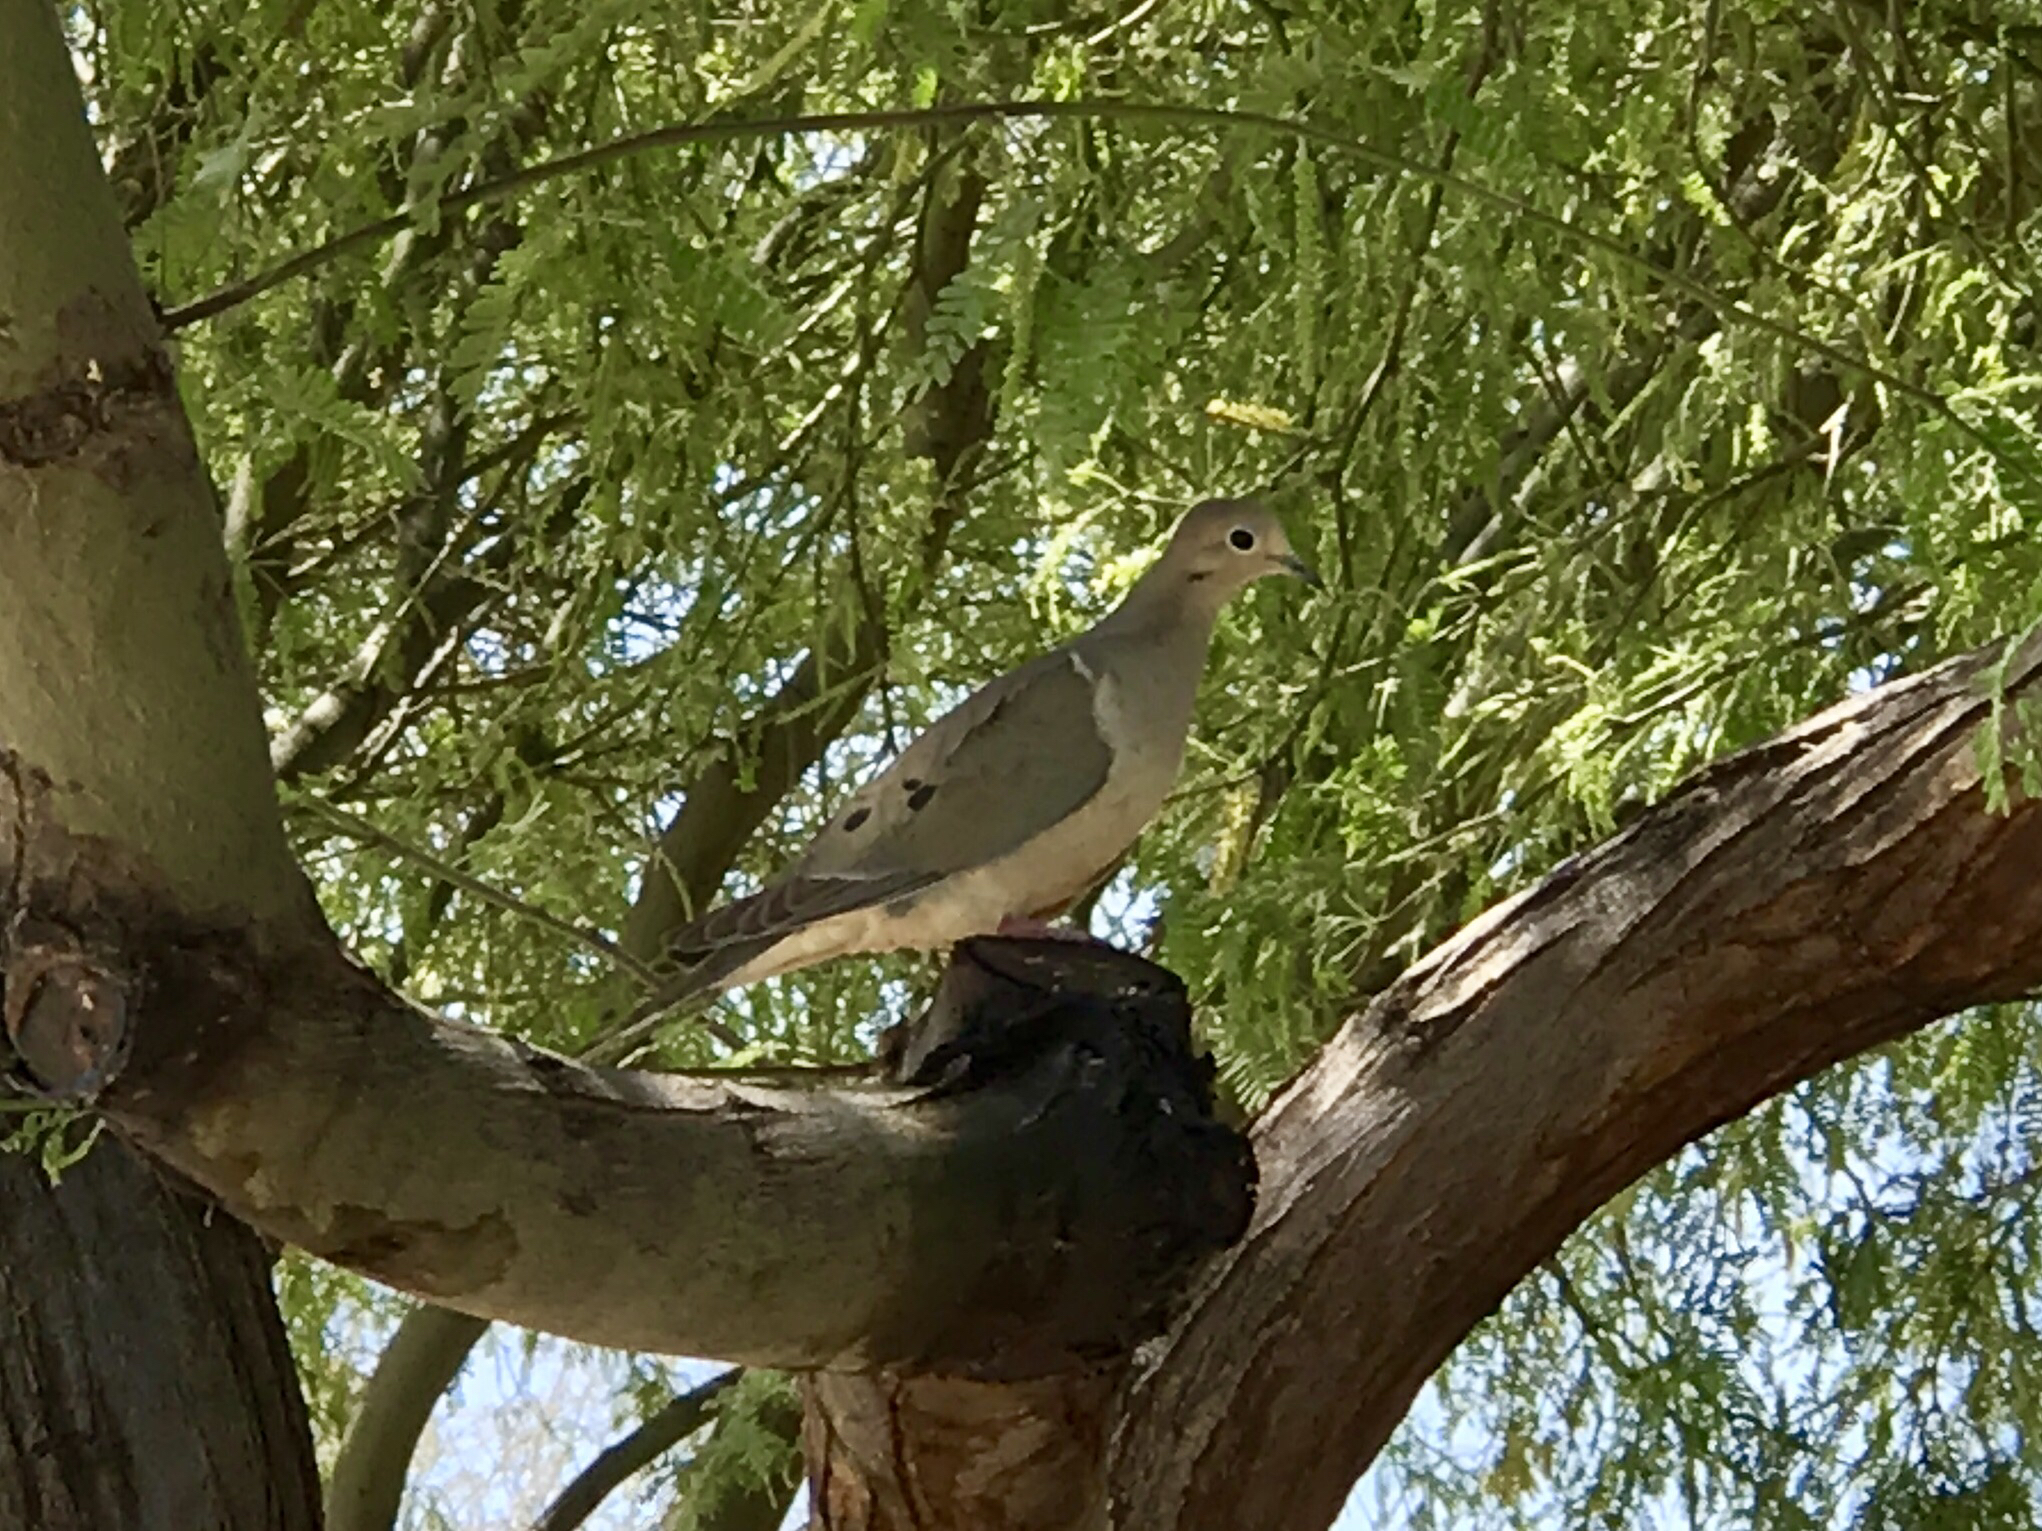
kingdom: Animalia
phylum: Chordata
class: Aves
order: Columbiformes
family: Columbidae
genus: Zenaida
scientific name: Zenaida macroura
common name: Mourning dove
